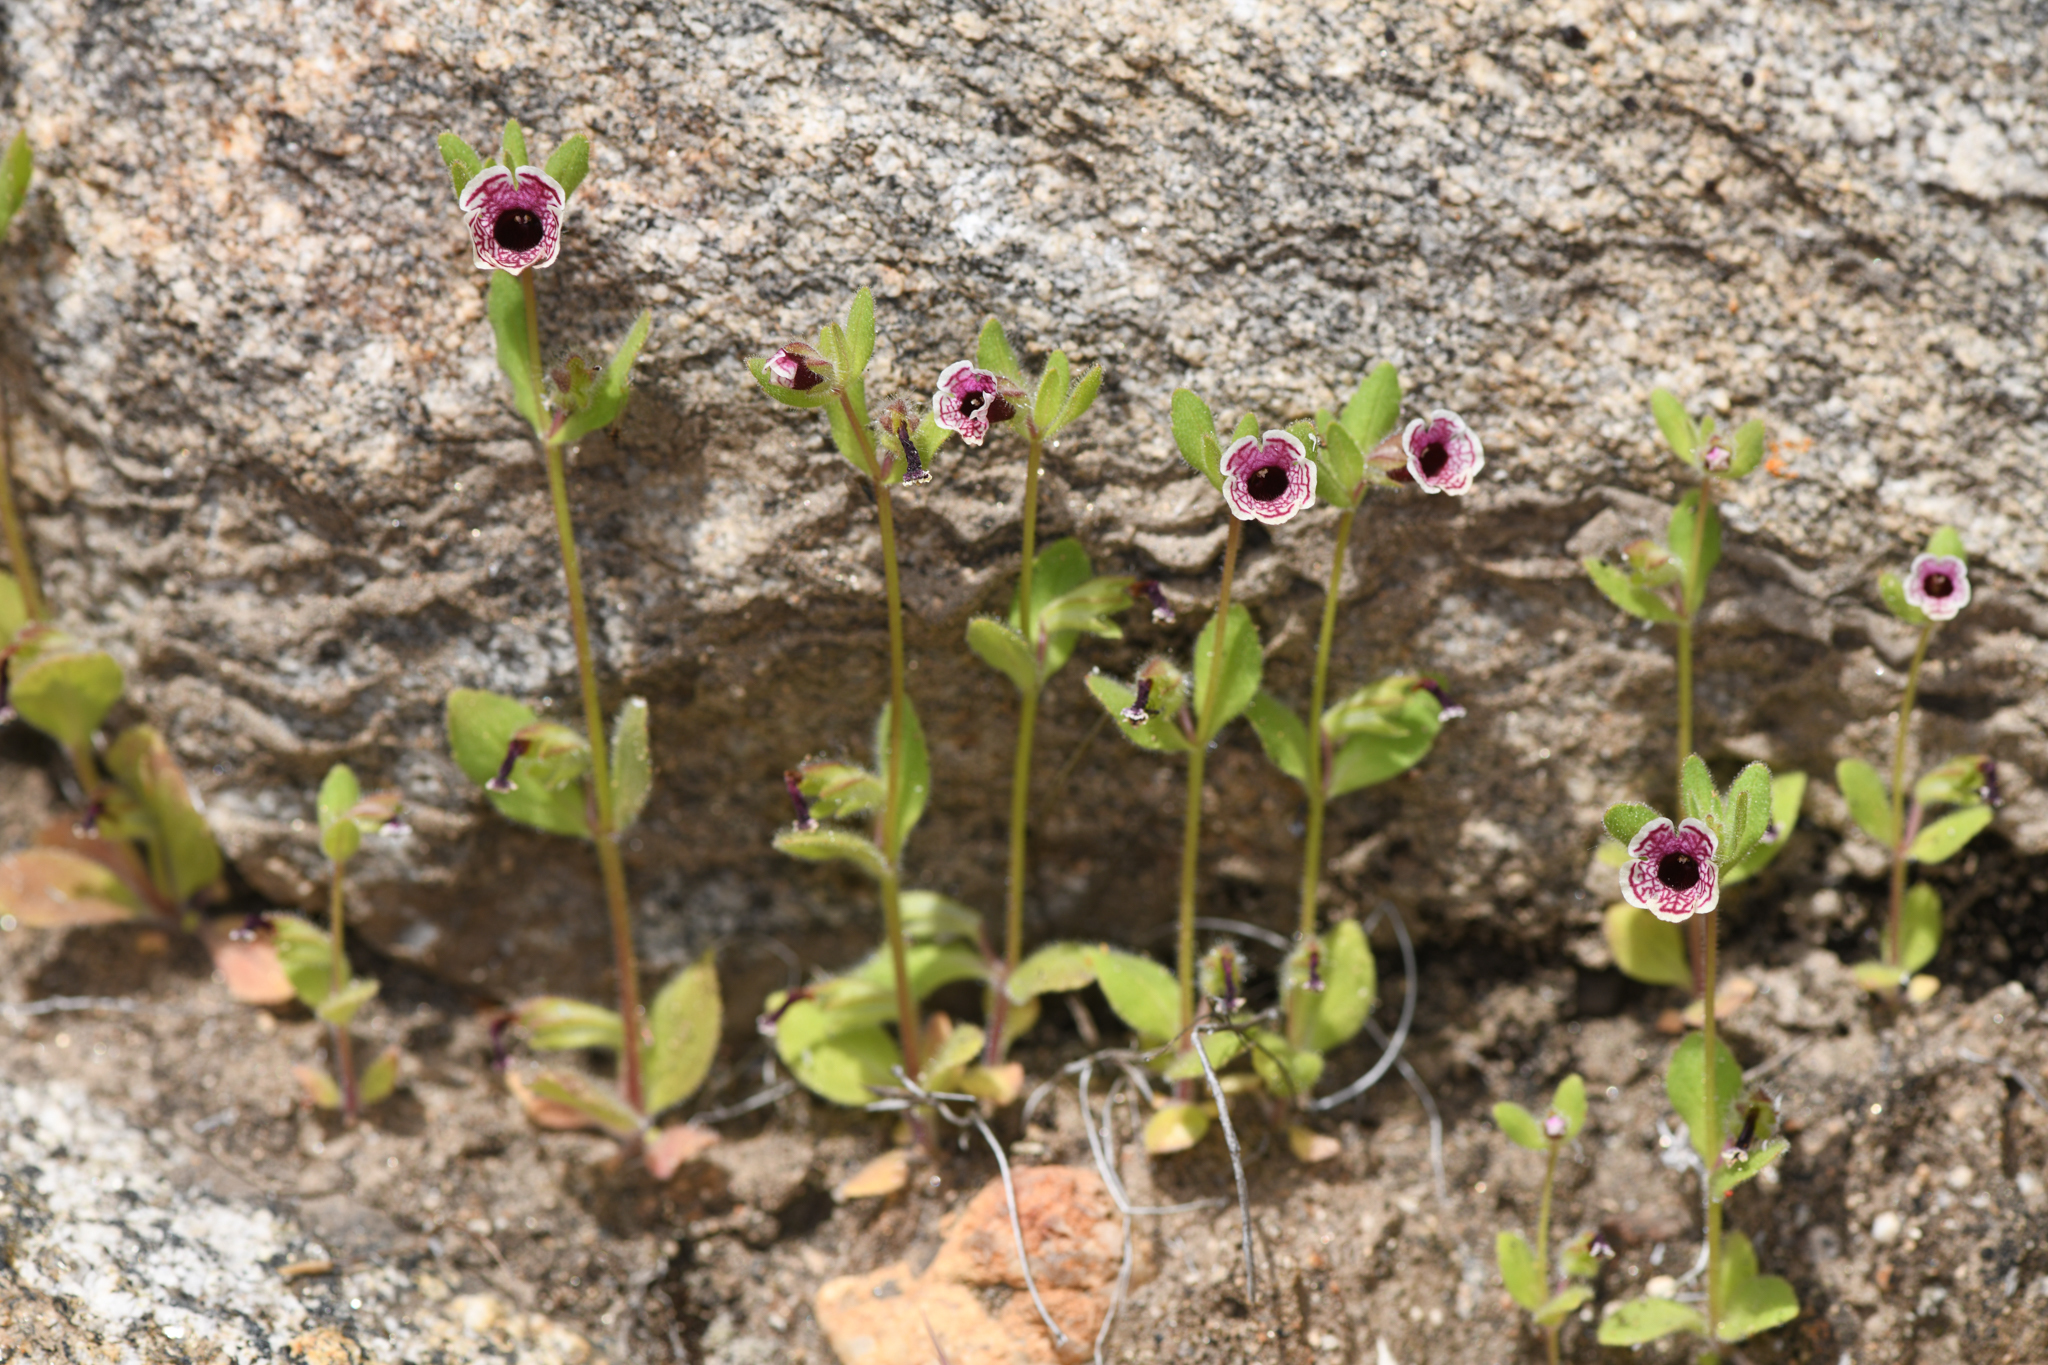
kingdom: Plantae
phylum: Tracheophyta
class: Magnoliopsida
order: Lamiales
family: Phrymaceae
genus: Diplacus
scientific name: Diplacus pictus
